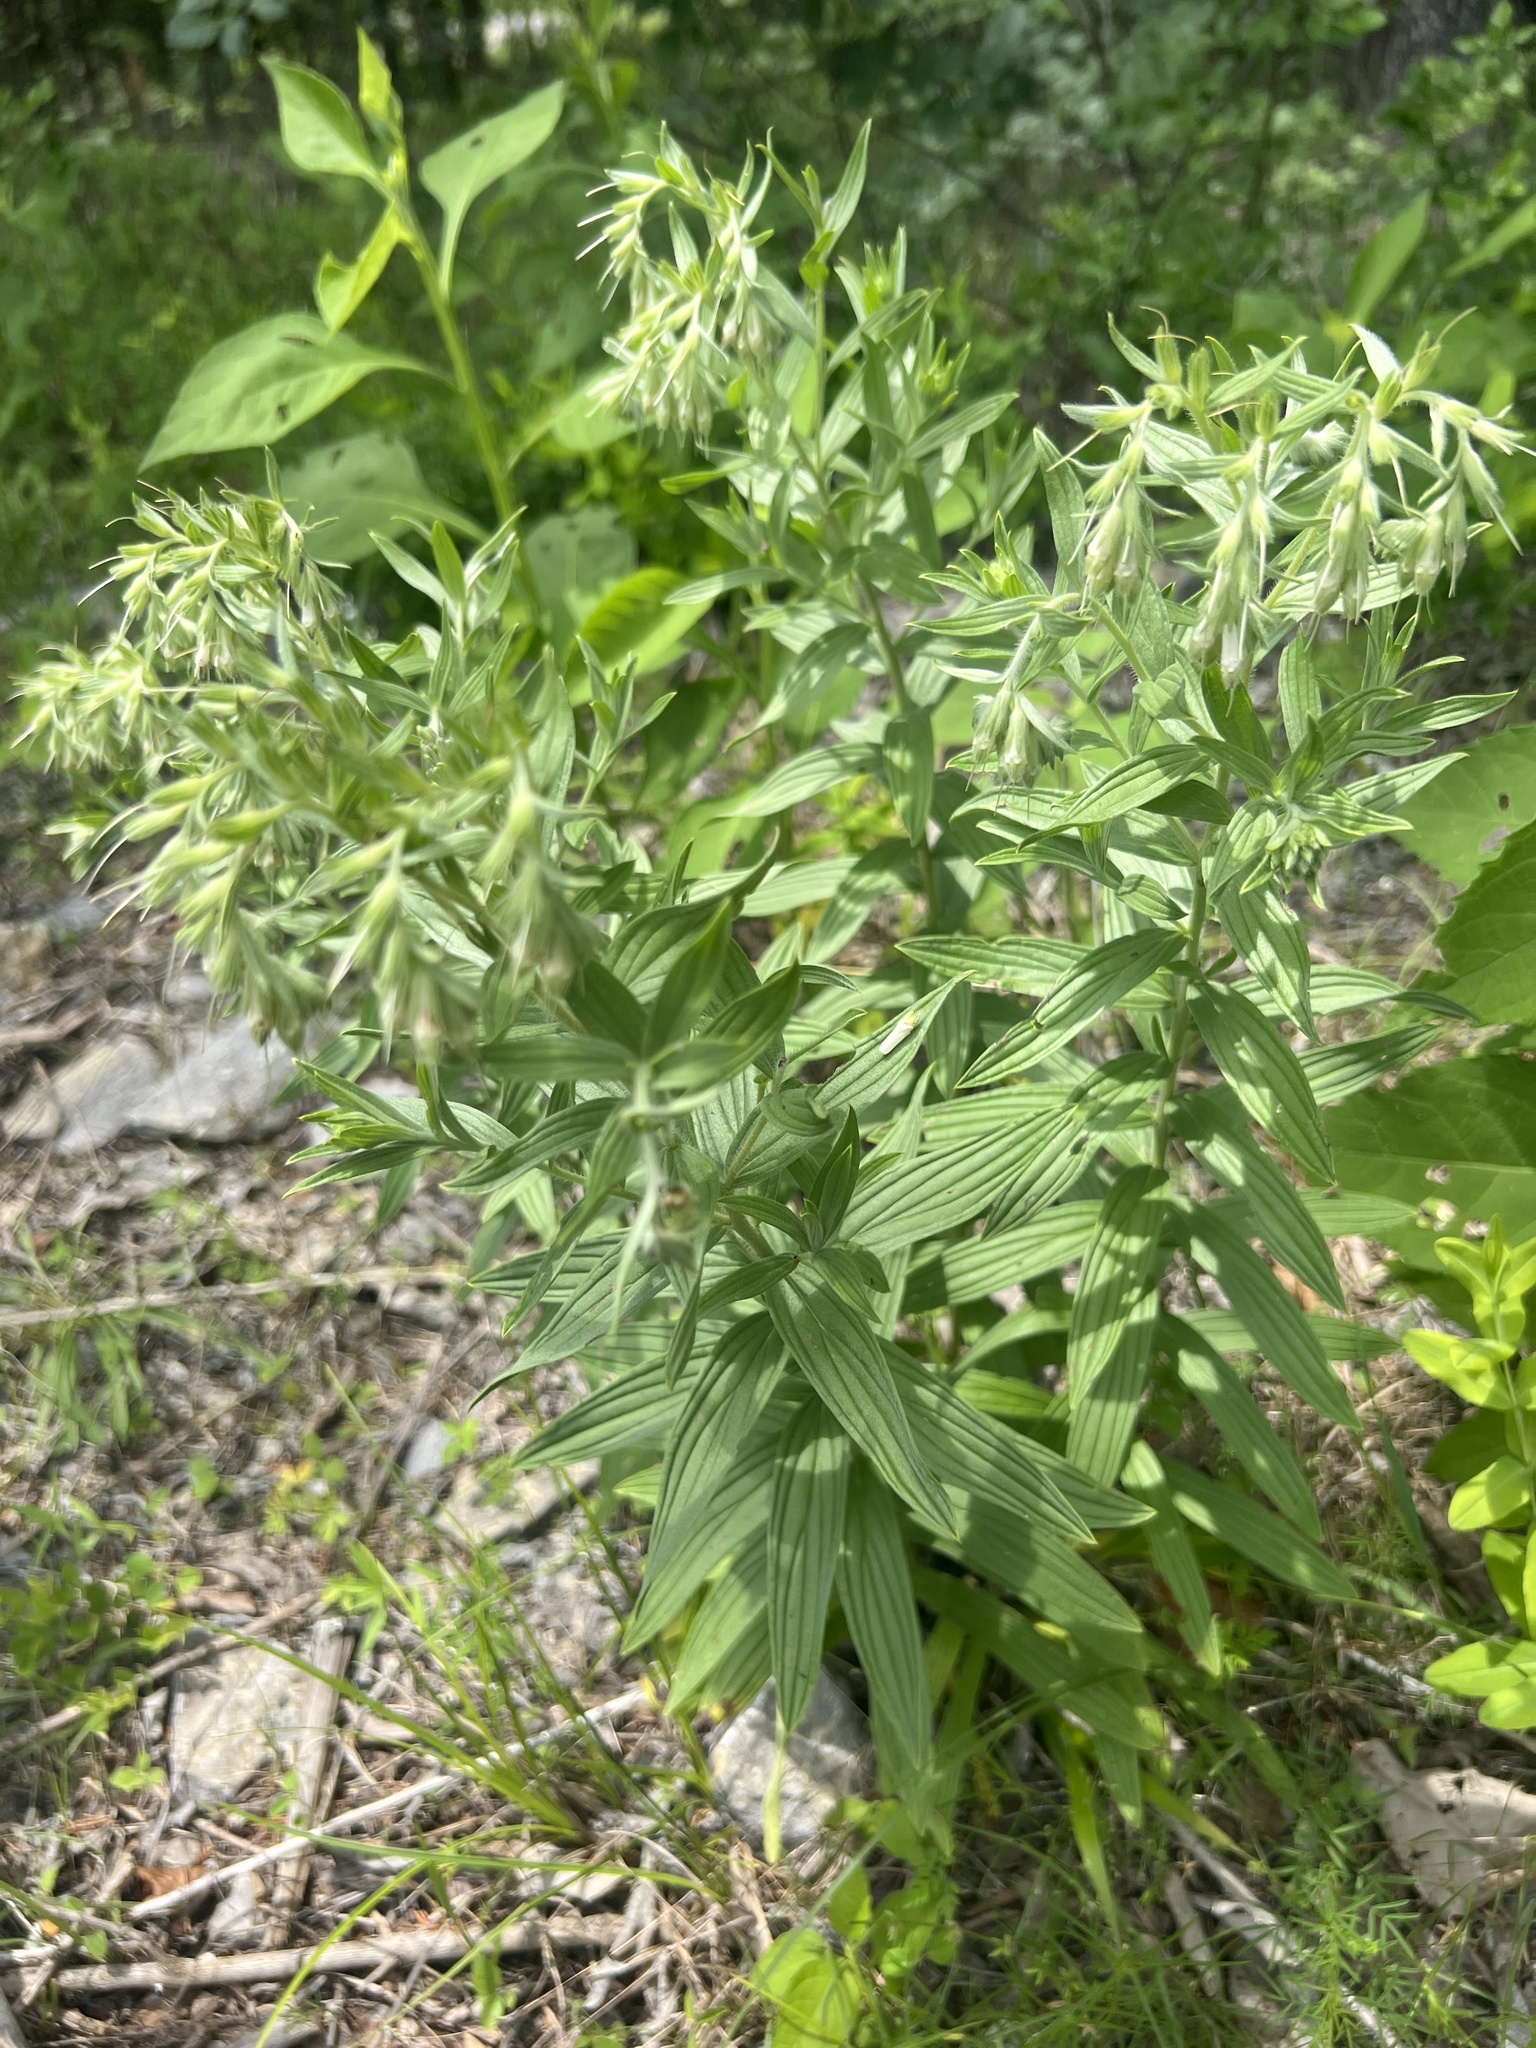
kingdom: Plantae
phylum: Tracheophyta
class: Magnoliopsida
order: Boraginales
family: Boraginaceae
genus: Lithospermum
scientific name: Lithospermum molle
